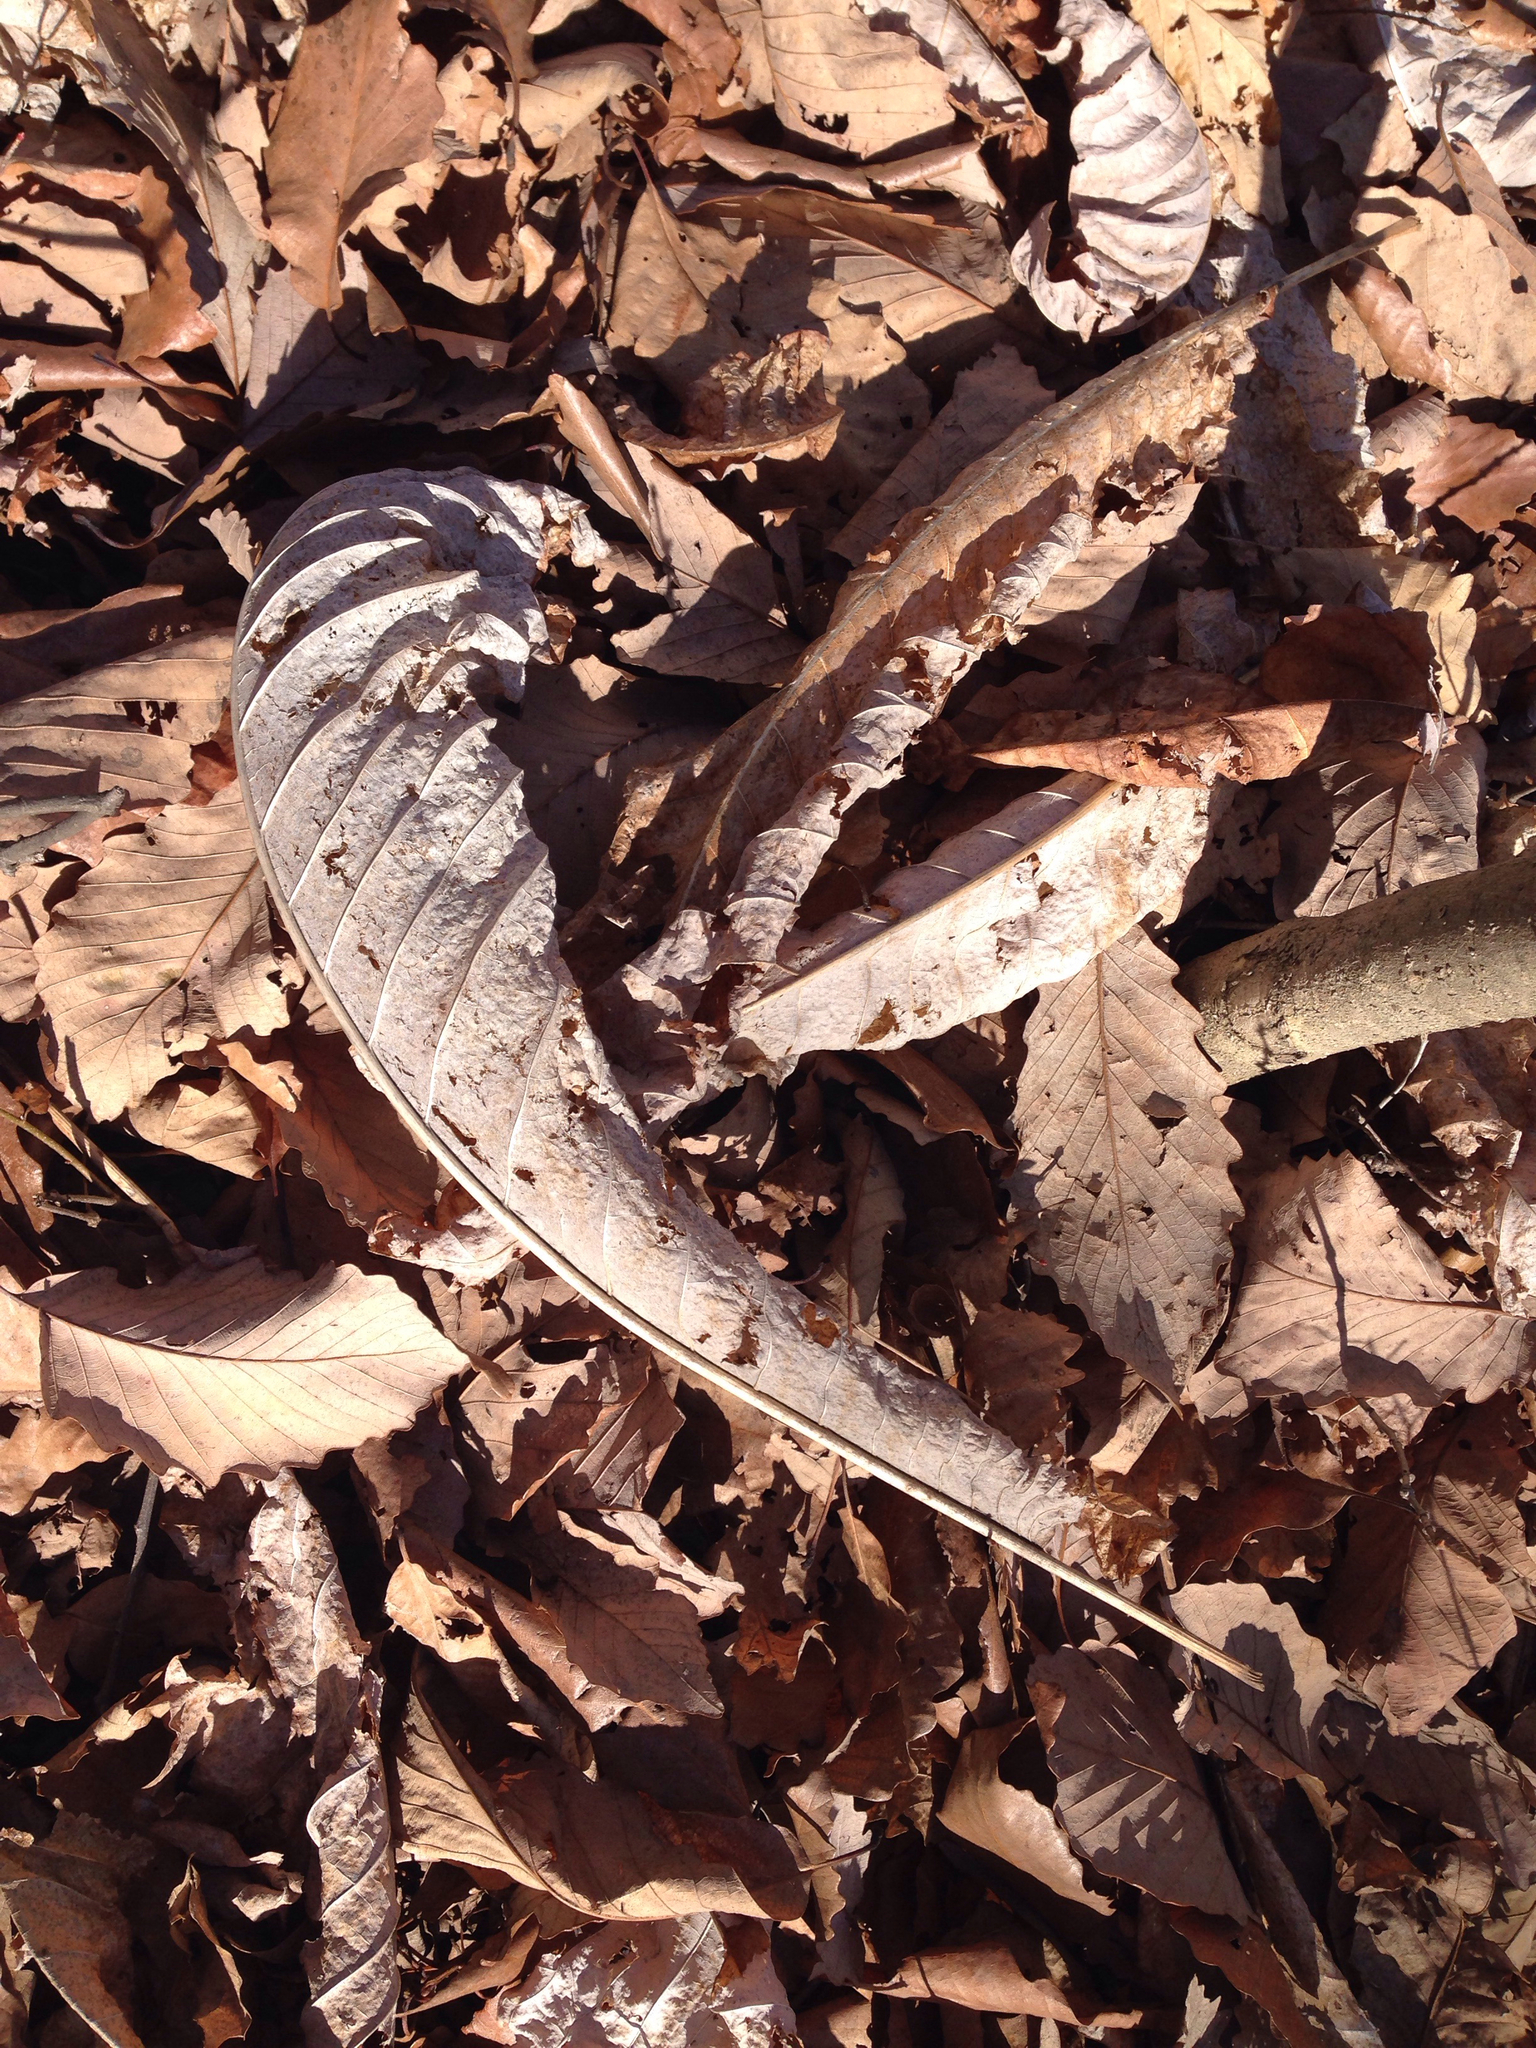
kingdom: Plantae
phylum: Tracheophyta
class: Magnoliopsida
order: Magnoliales
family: Magnoliaceae
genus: Magnolia
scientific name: Magnolia macrophylla
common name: Big-leaf magnolia
